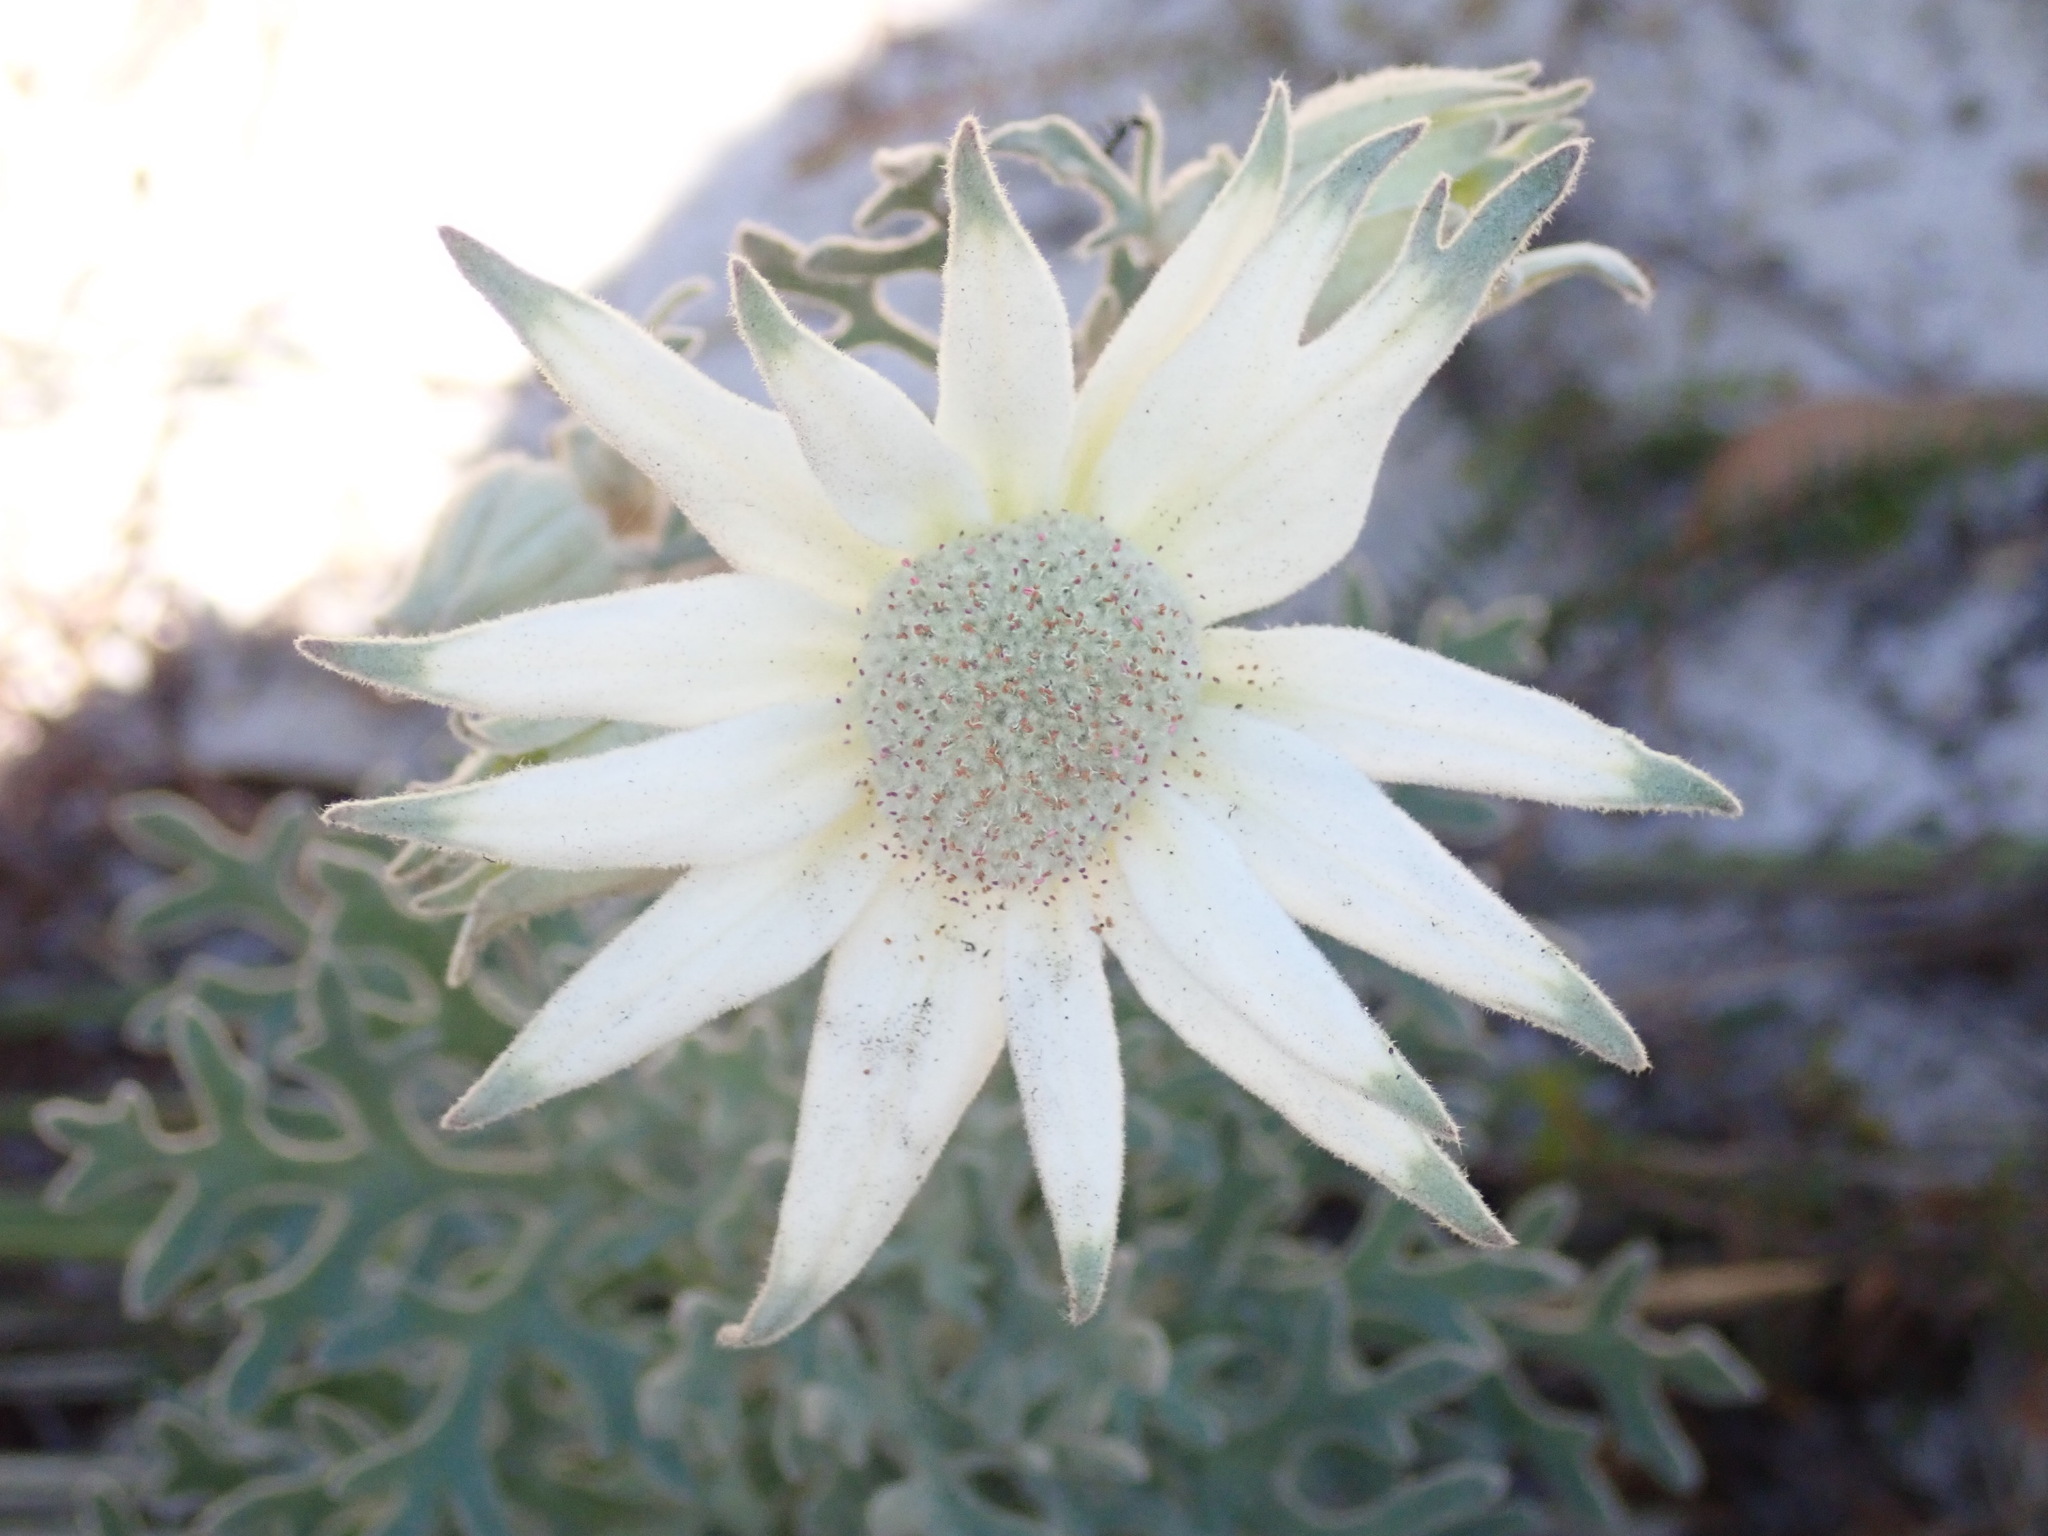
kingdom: Plantae
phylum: Tracheophyta
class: Magnoliopsida
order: Apiales
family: Apiaceae
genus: Actinotus
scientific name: Actinotus helianthi
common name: Flannel-flower
